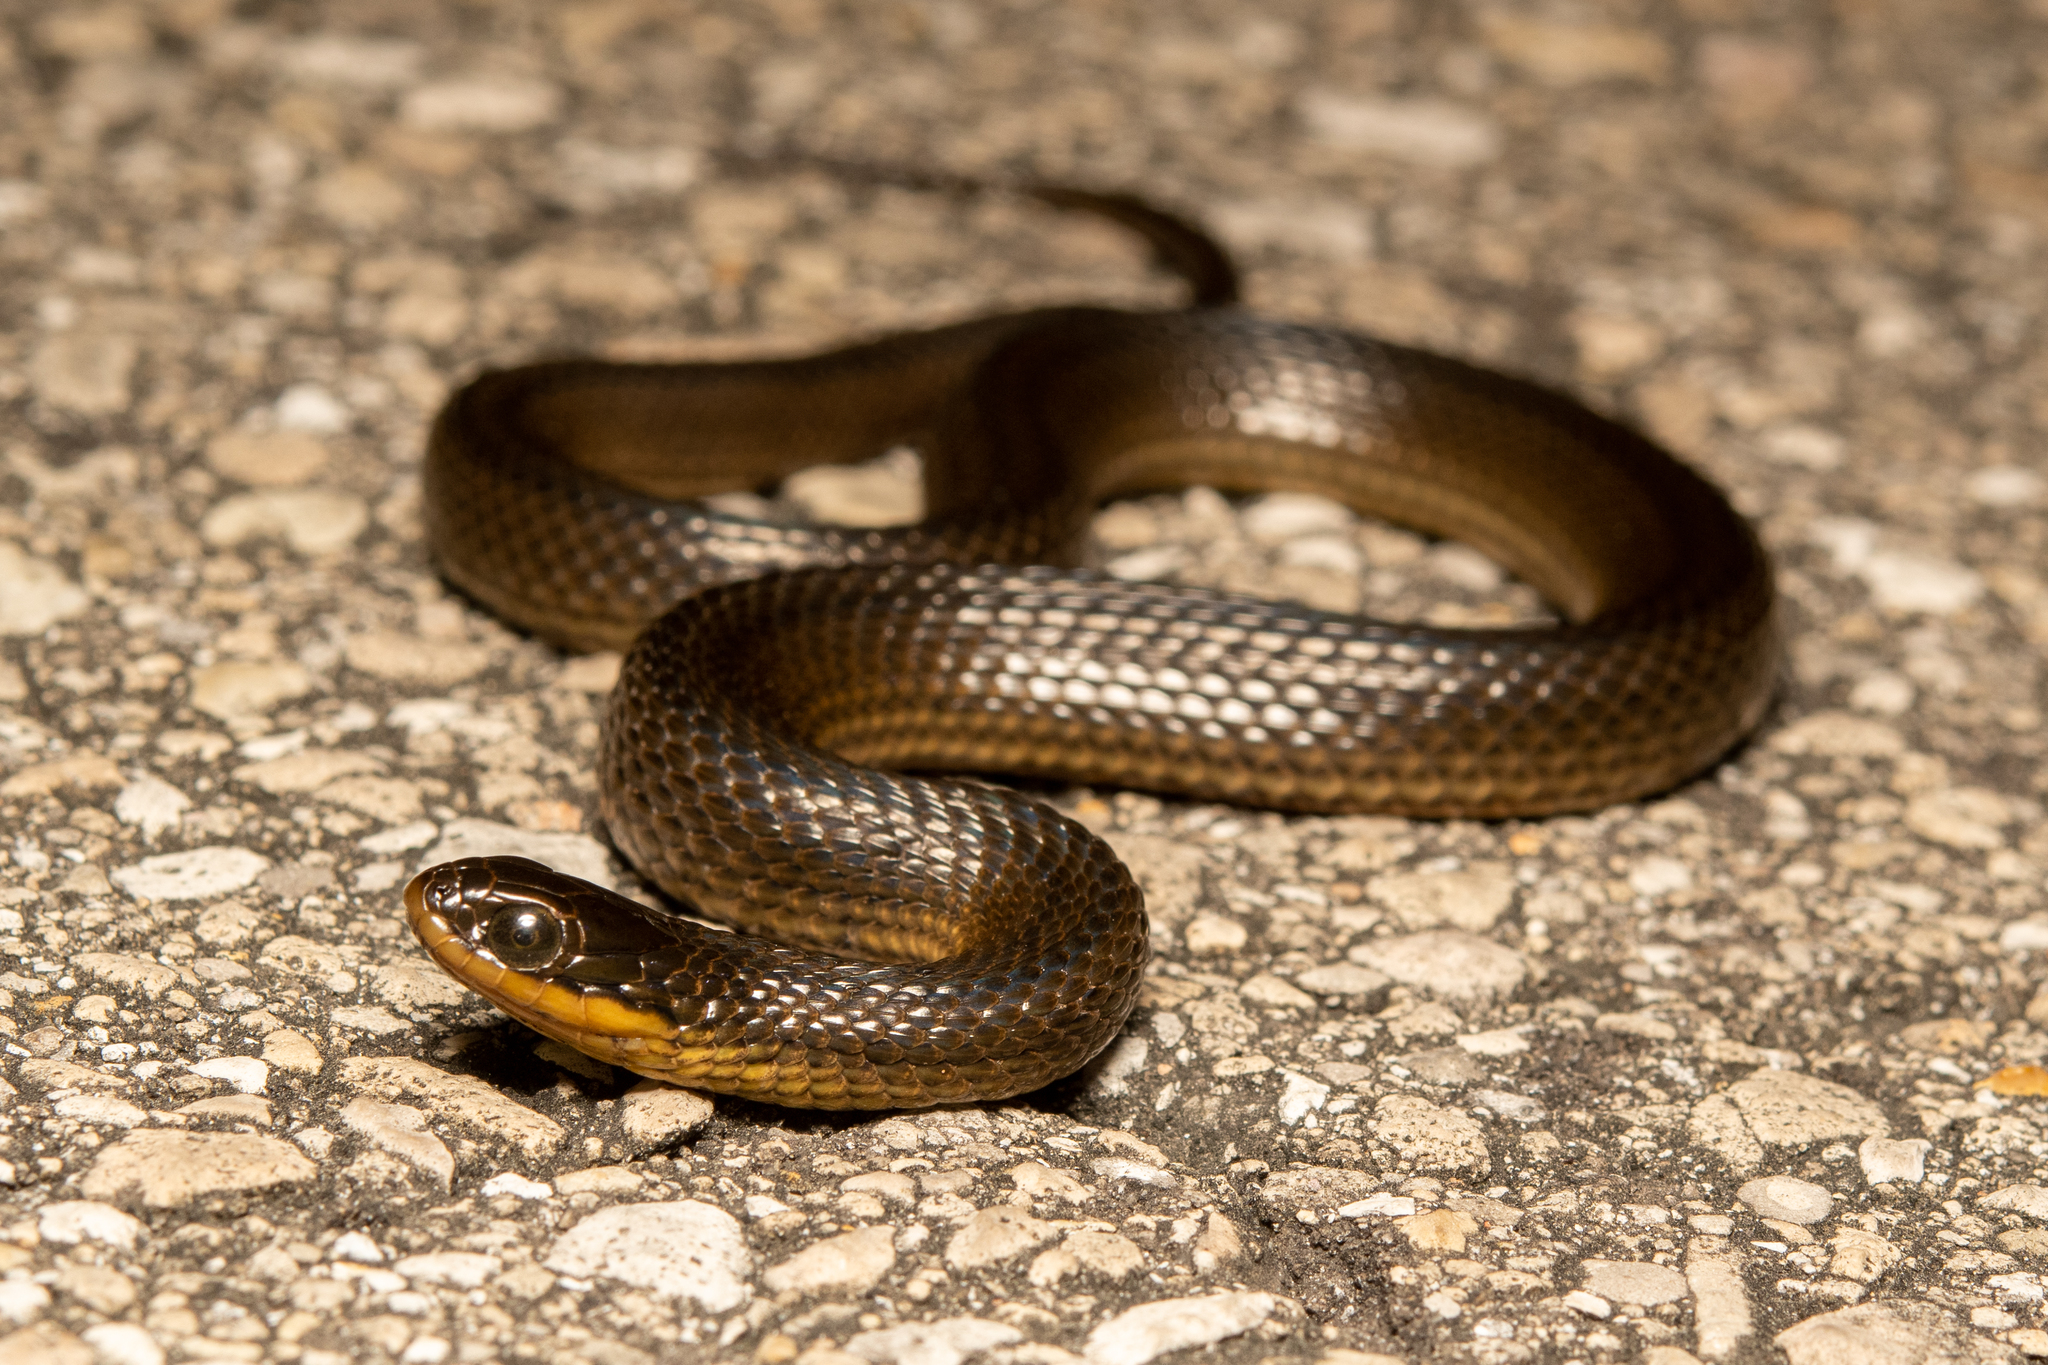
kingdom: Animalia
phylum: Chordata
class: Squamata
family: Colubridae
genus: Liodytes
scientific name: Liodytes rigida
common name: Crayfish snake
